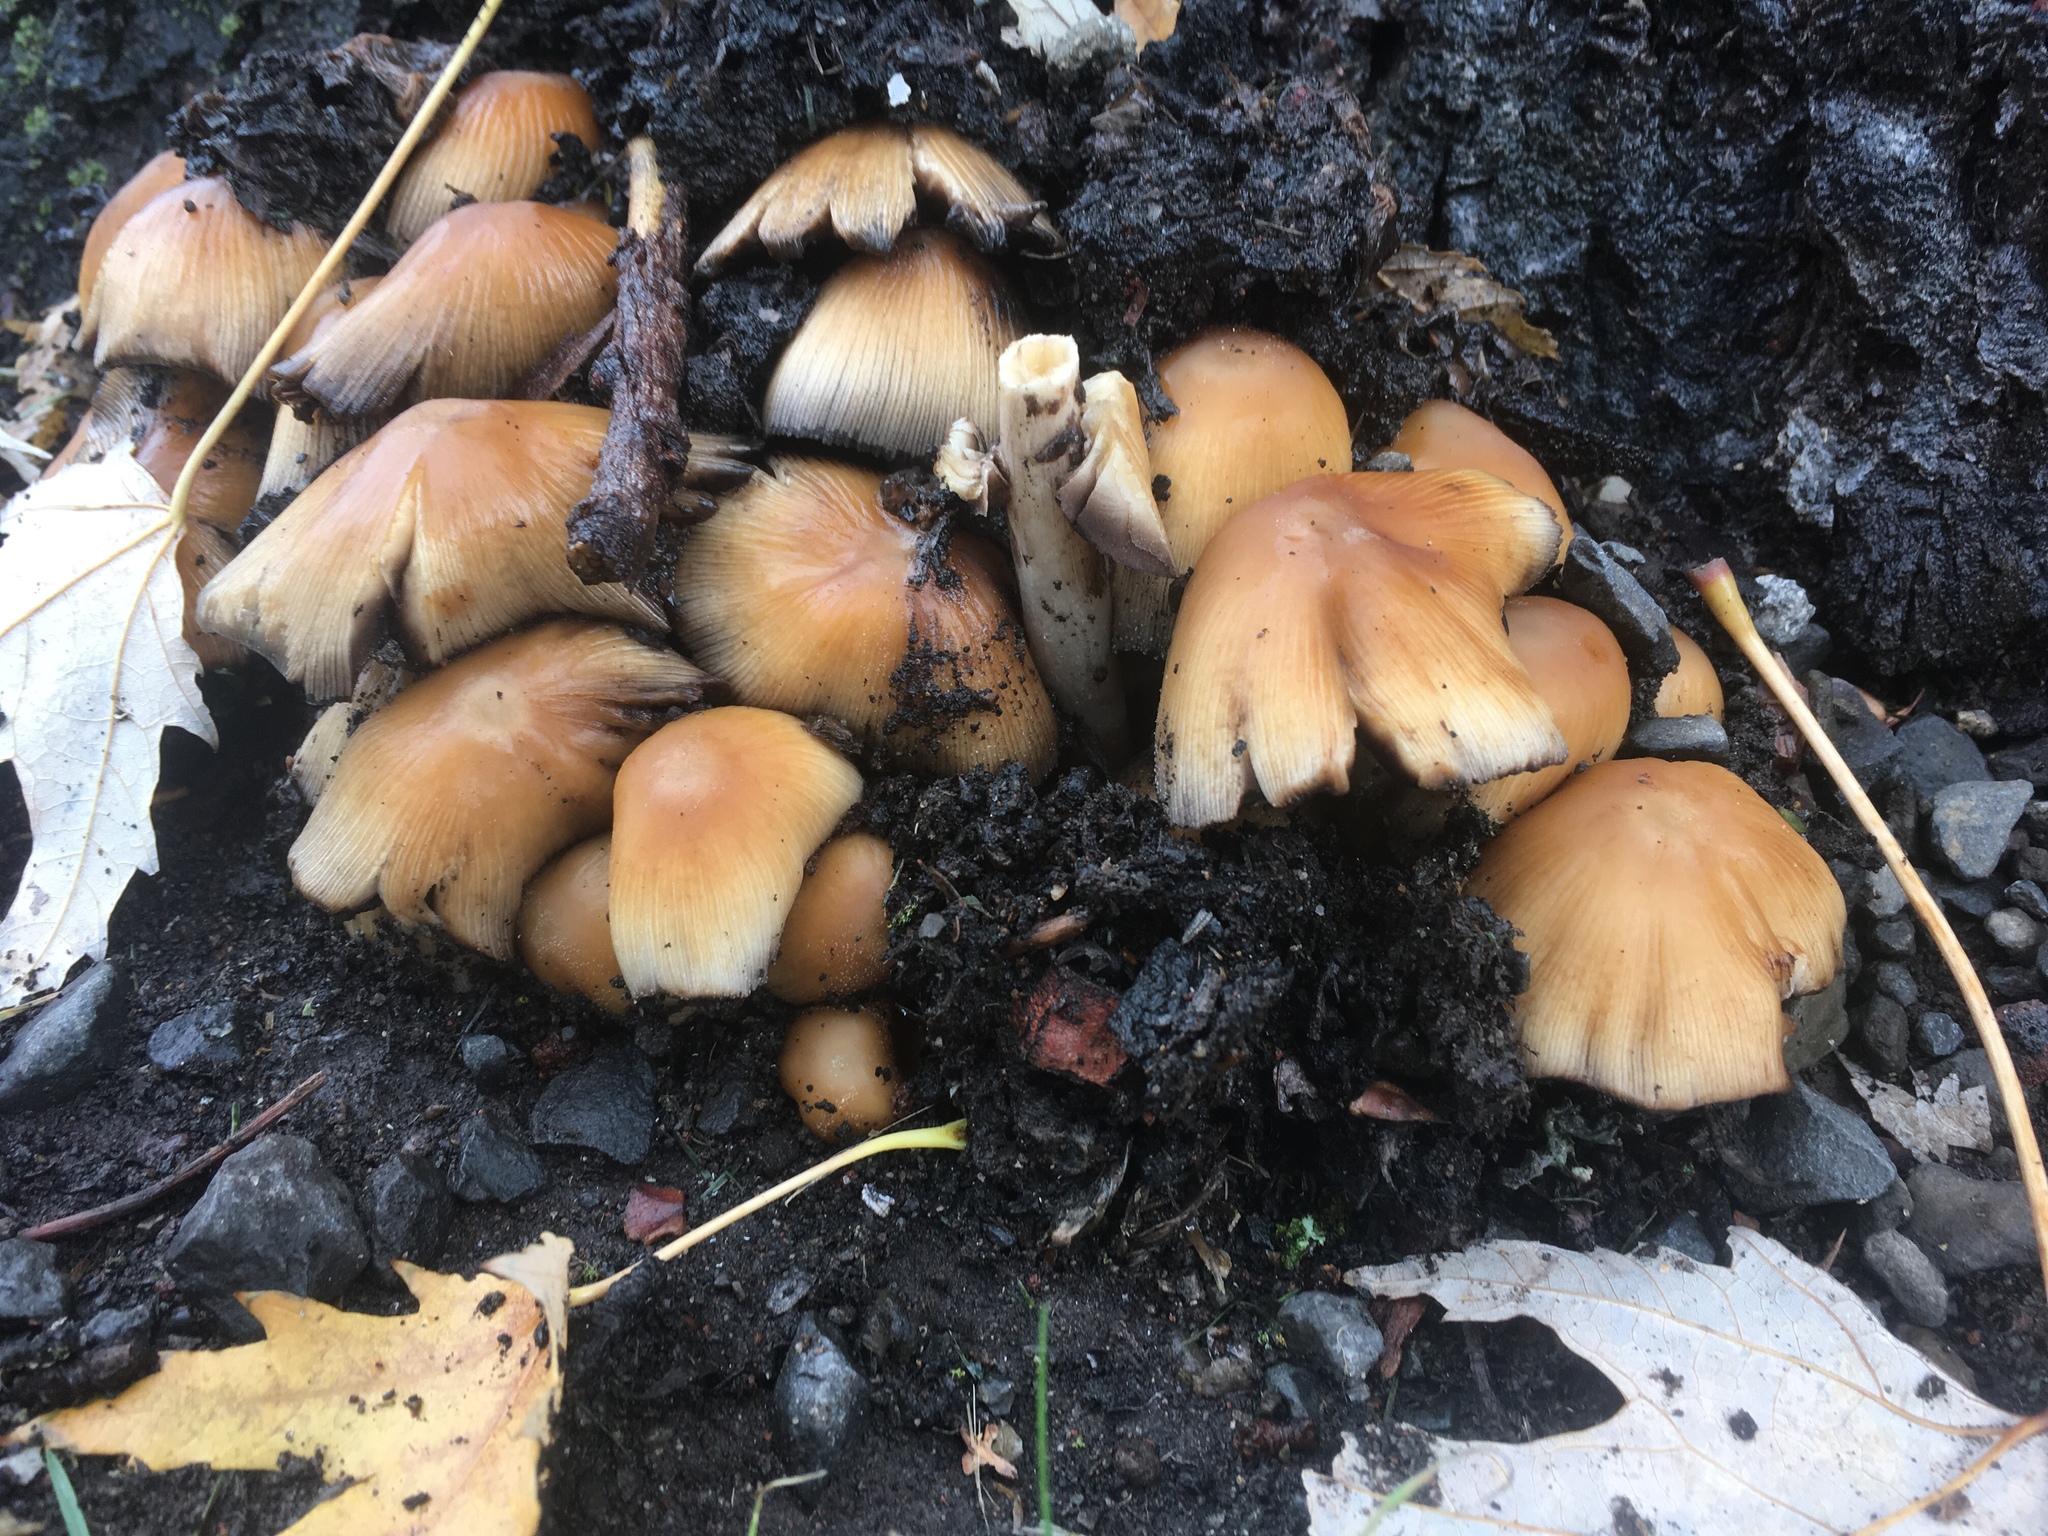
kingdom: Fungi
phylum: Basidiomycota
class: Agaricomycetes
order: Agaricales
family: Psathyrellaceae
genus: Coprinellus
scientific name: Coprinellus micaceus
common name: Glistening ink-cap
